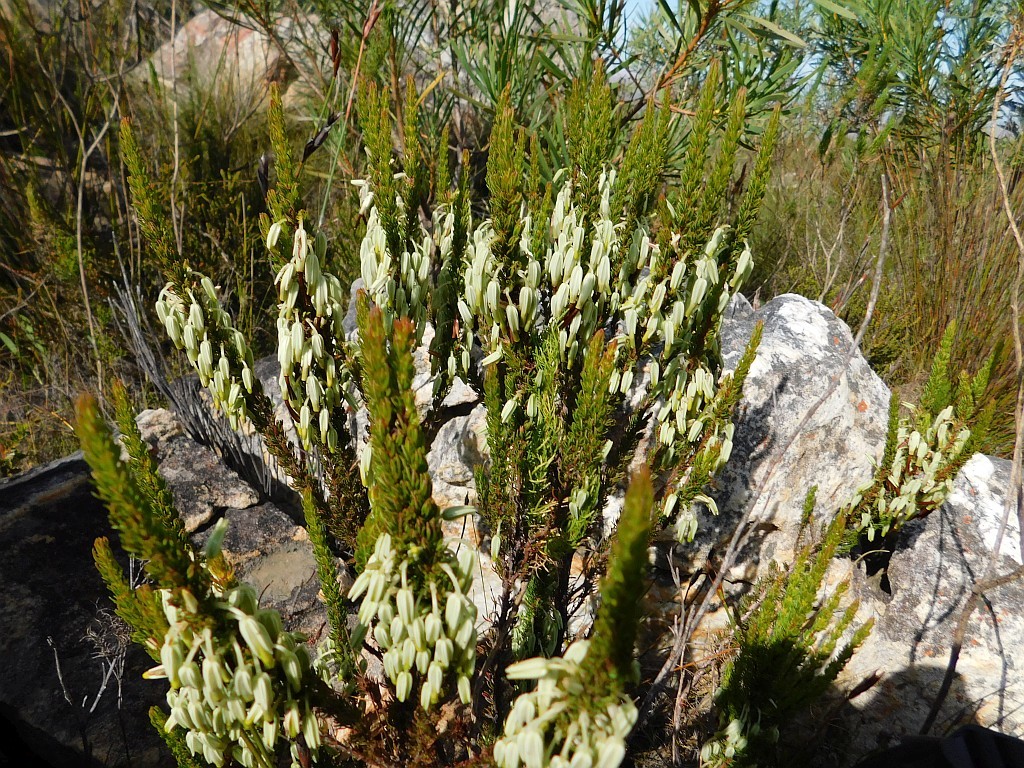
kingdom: Plantae
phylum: Tracheophyta
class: Magnoliopsida
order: Ericales
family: Ericaceae
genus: Erica
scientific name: Erica plukenetii
